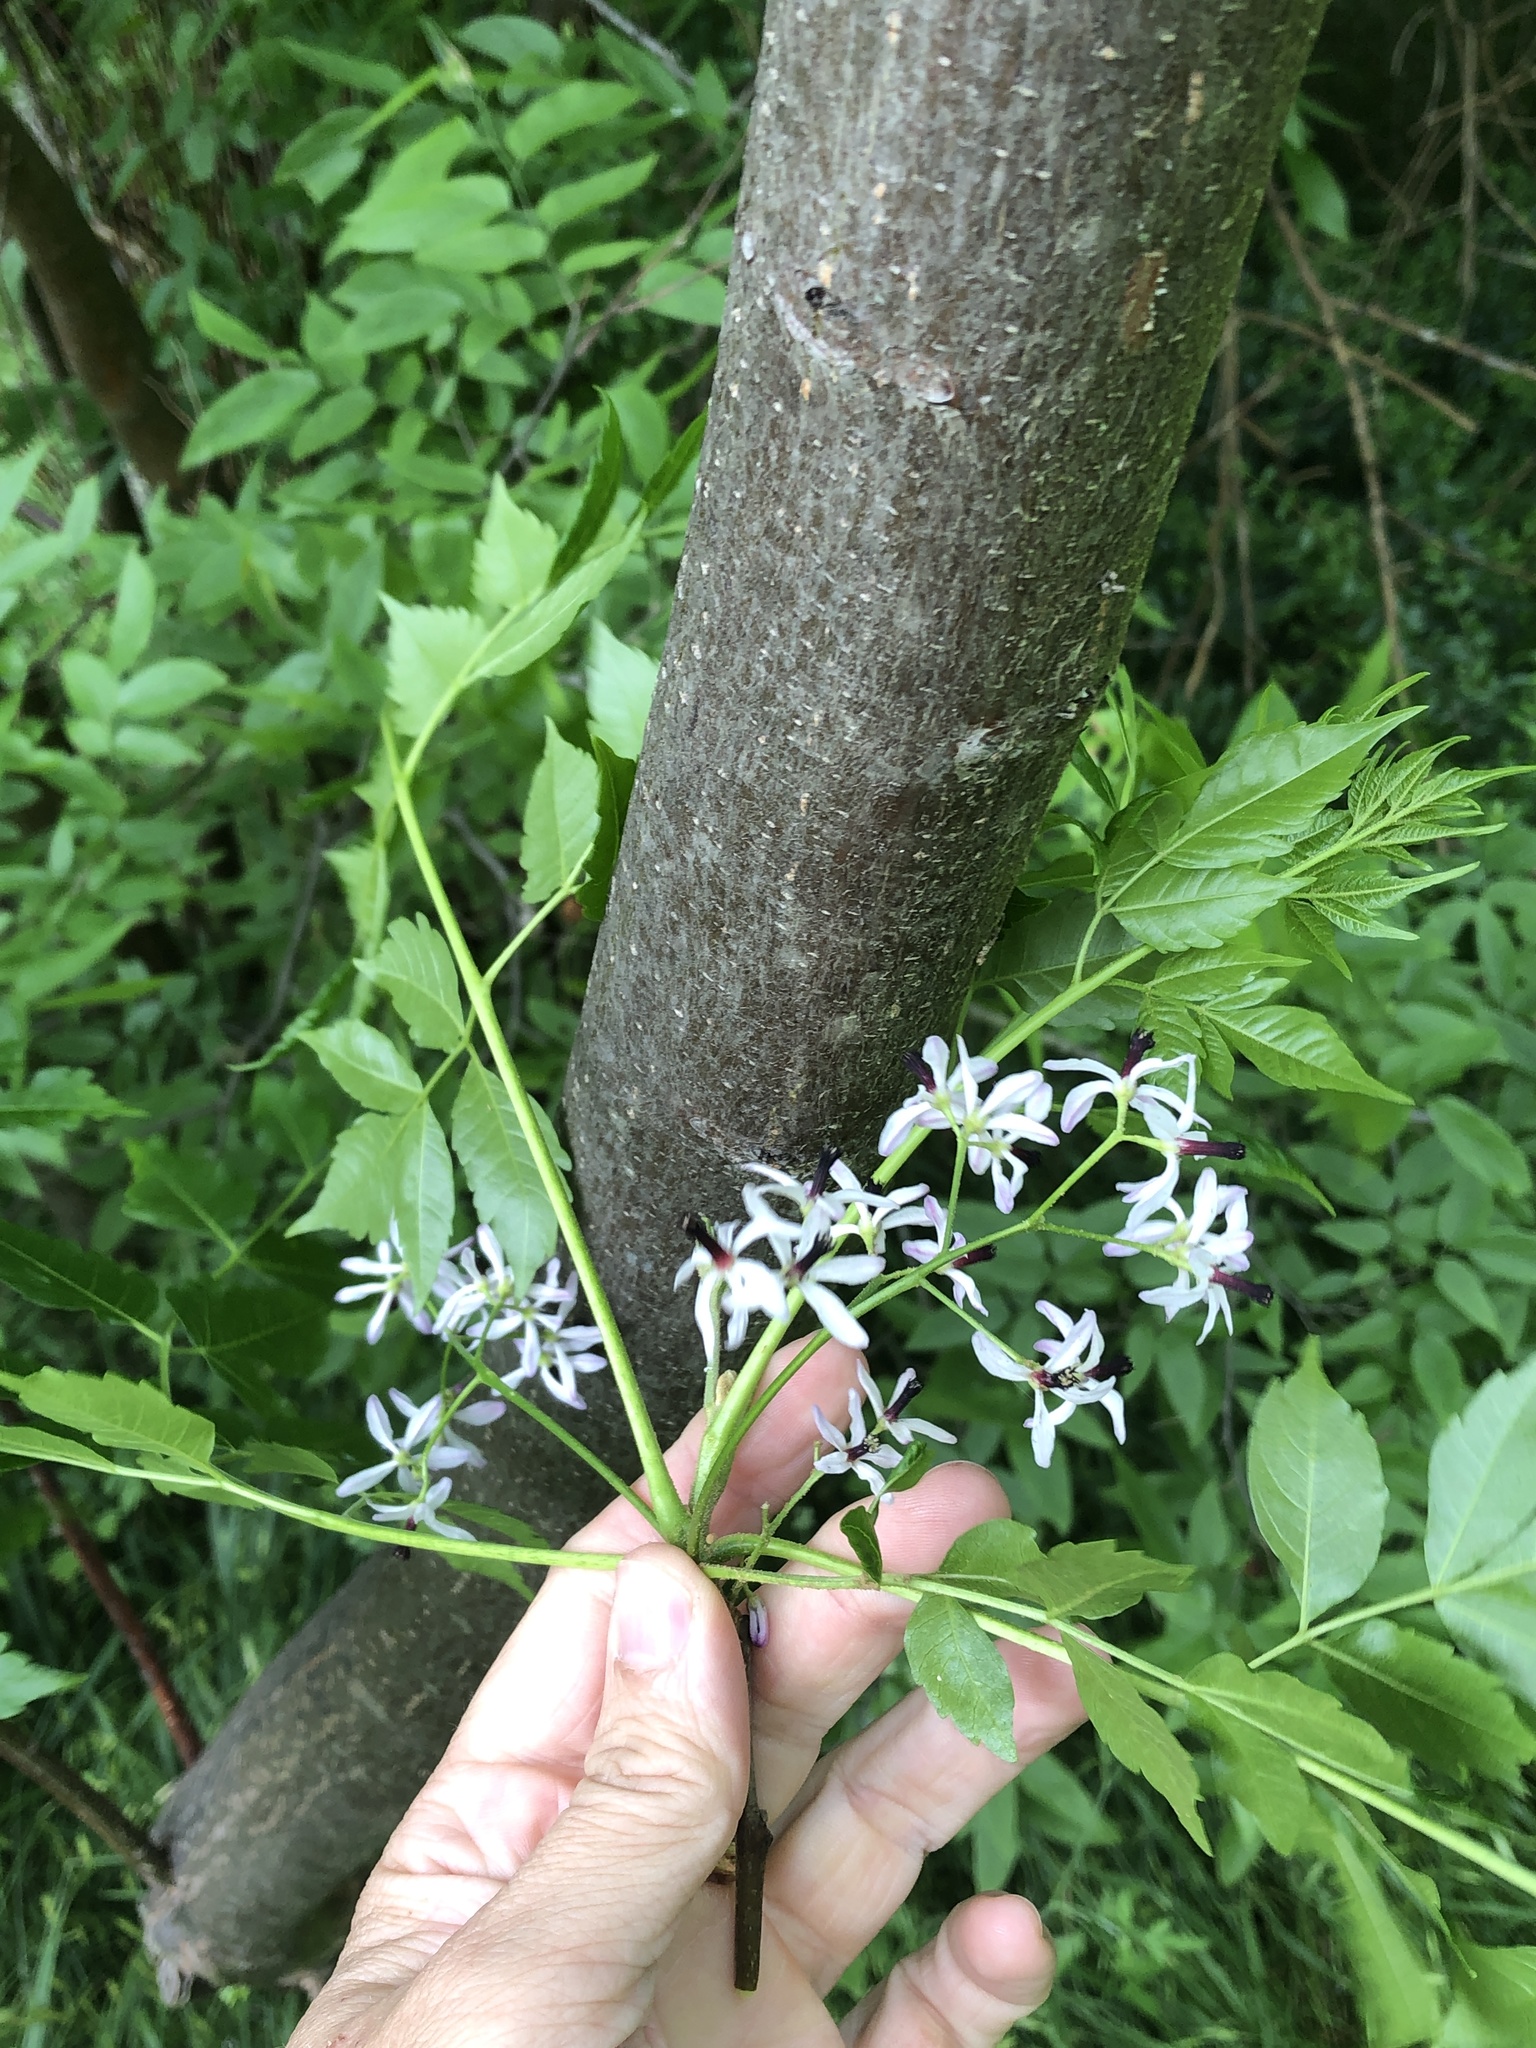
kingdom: Plantae
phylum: Tracheophyta
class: Magnoliopsida
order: Sapindales
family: Meliaceae
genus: Melia
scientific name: Melia azedarach
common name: Chinaberrytree
